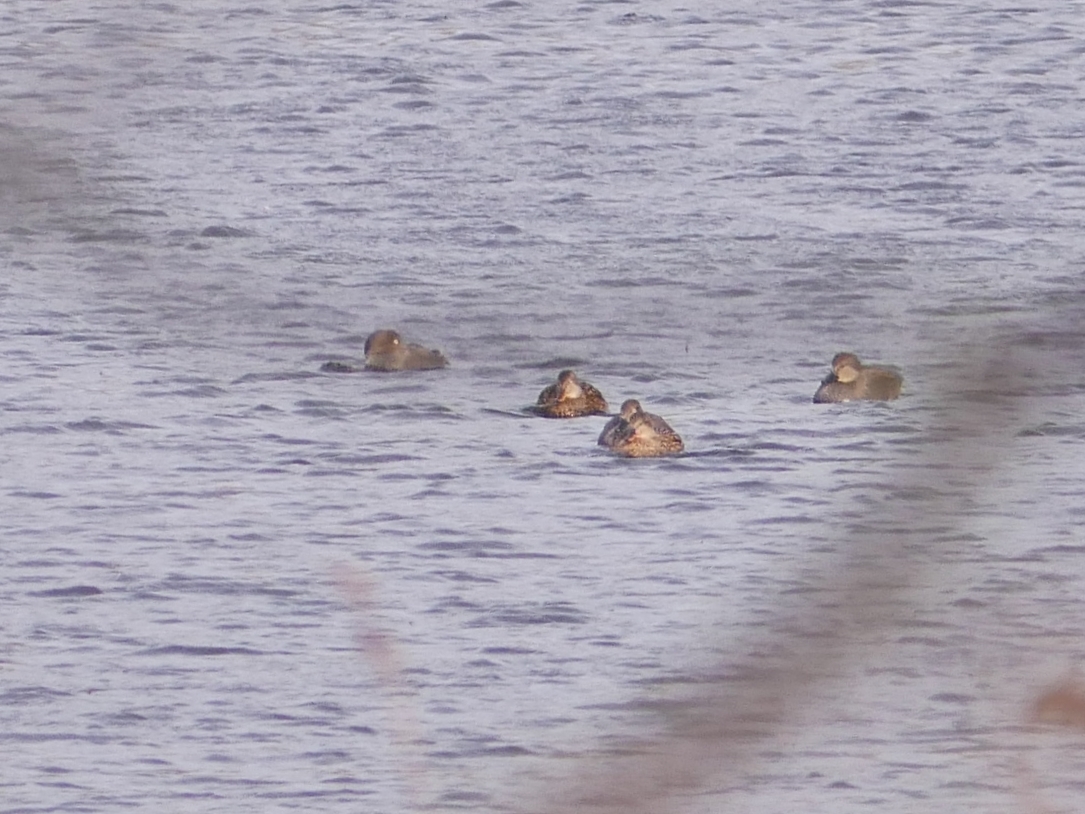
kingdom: Animalia
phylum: Chordata
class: Aves
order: Anseriformes
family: Anatidae
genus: Mareca
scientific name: Mareca strepera
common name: Gadwall
